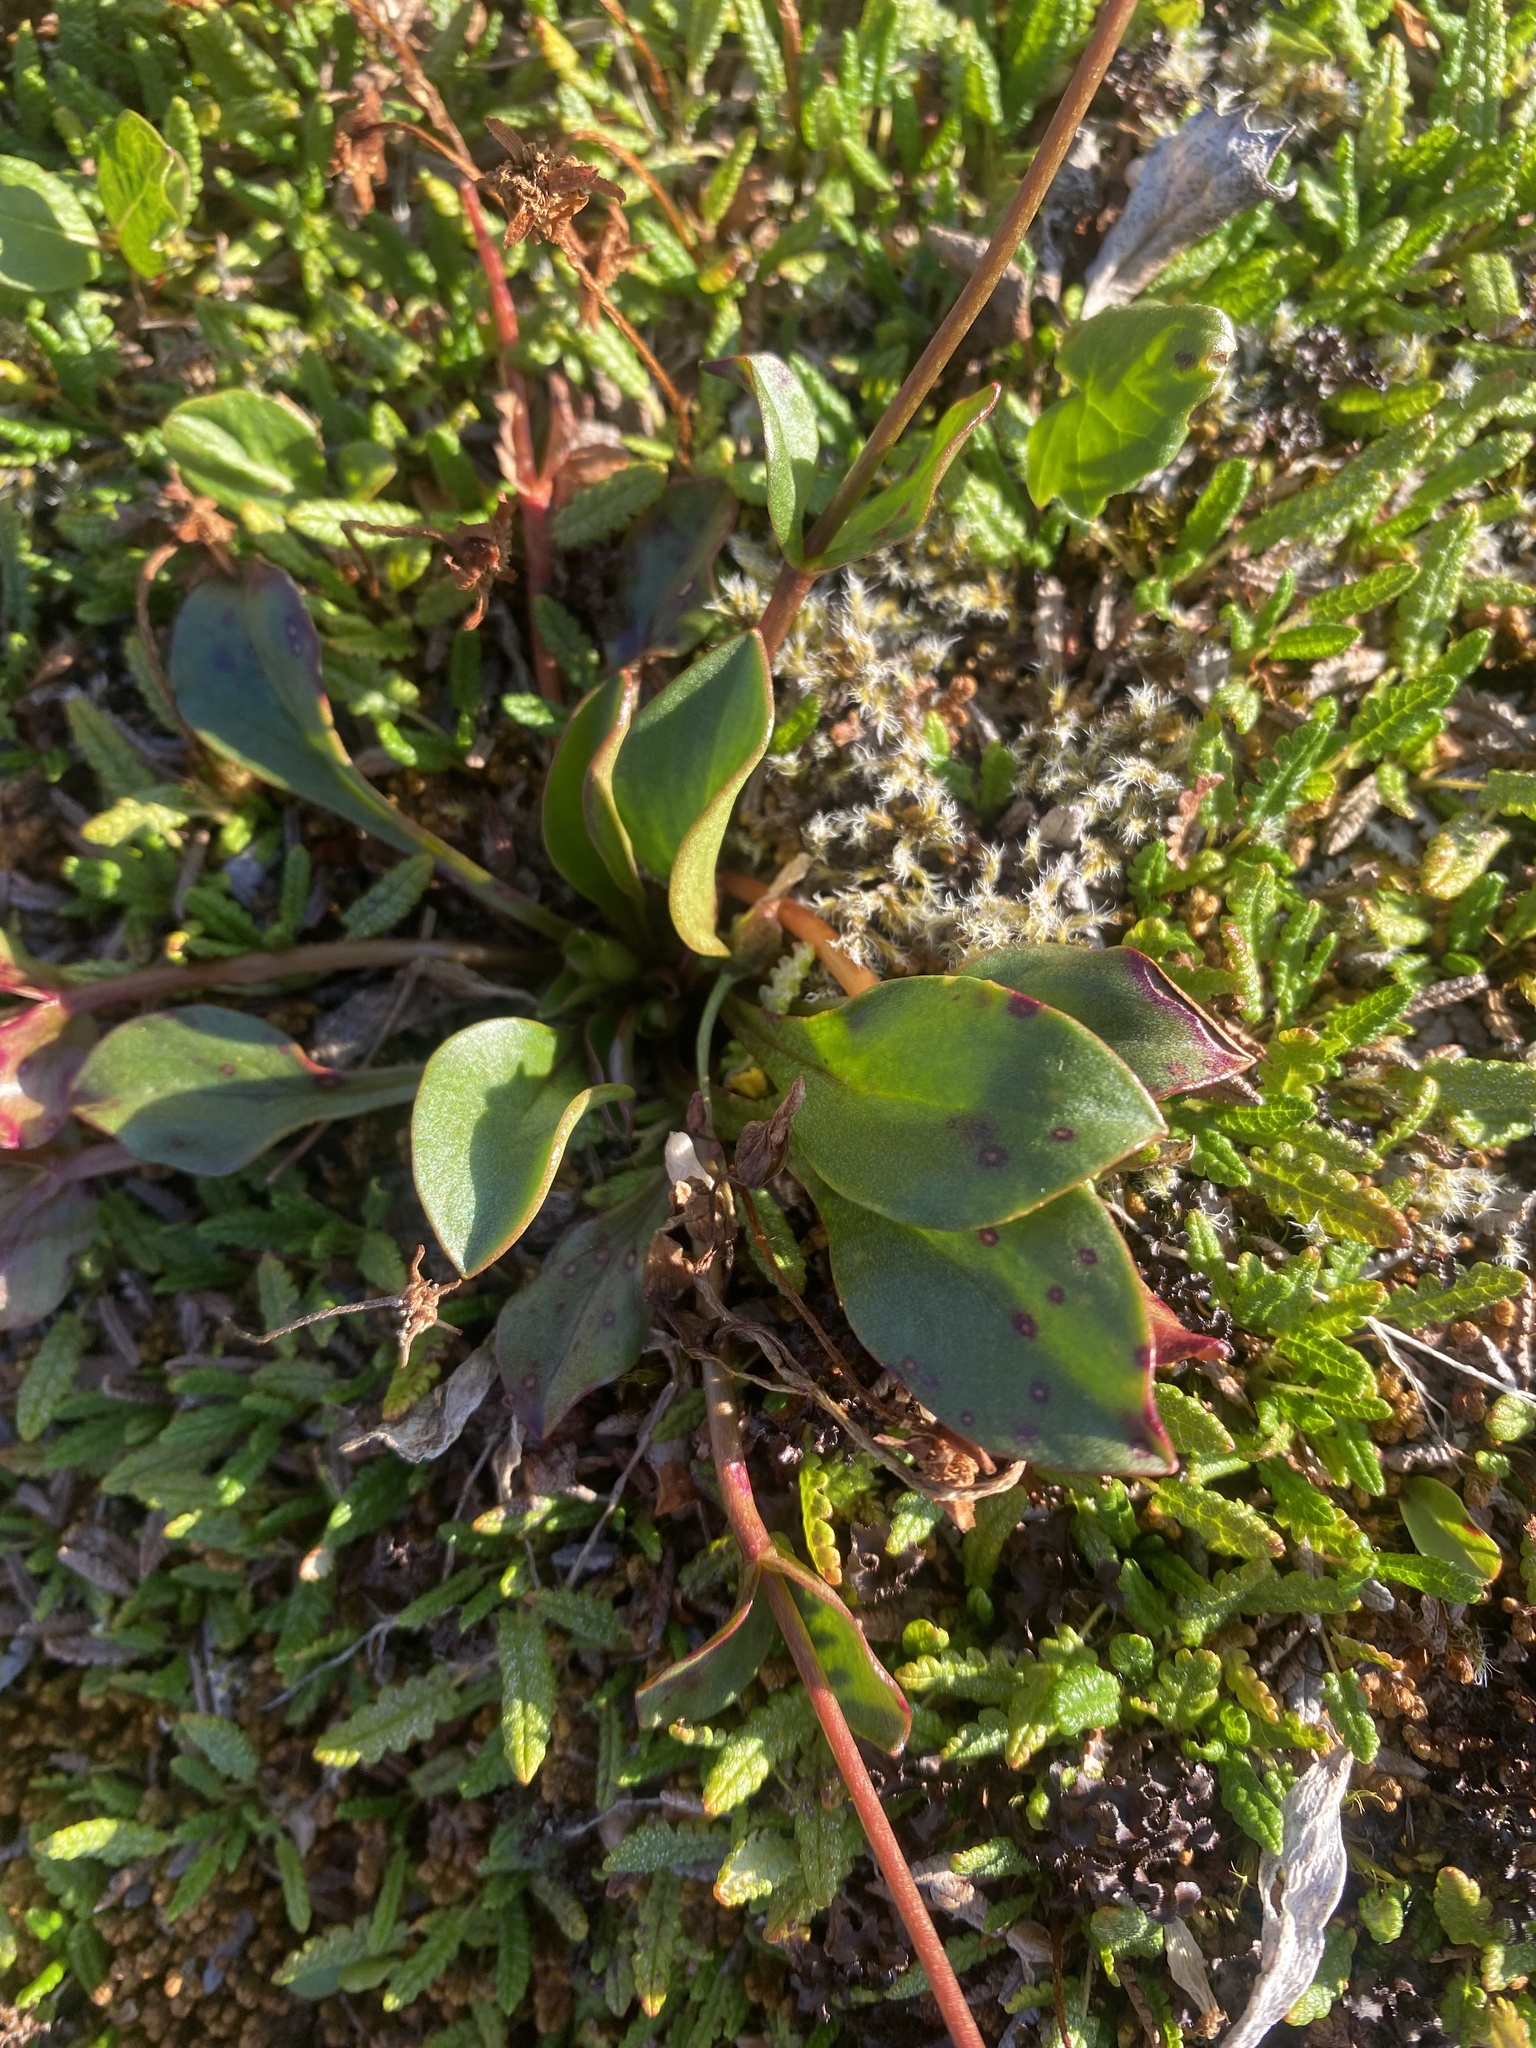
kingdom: Plantae
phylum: Tracheophyta
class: Magnoliopsida
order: Caryophyllales
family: Montiaceae
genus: Claytonia
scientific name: Claytonia joanneana
